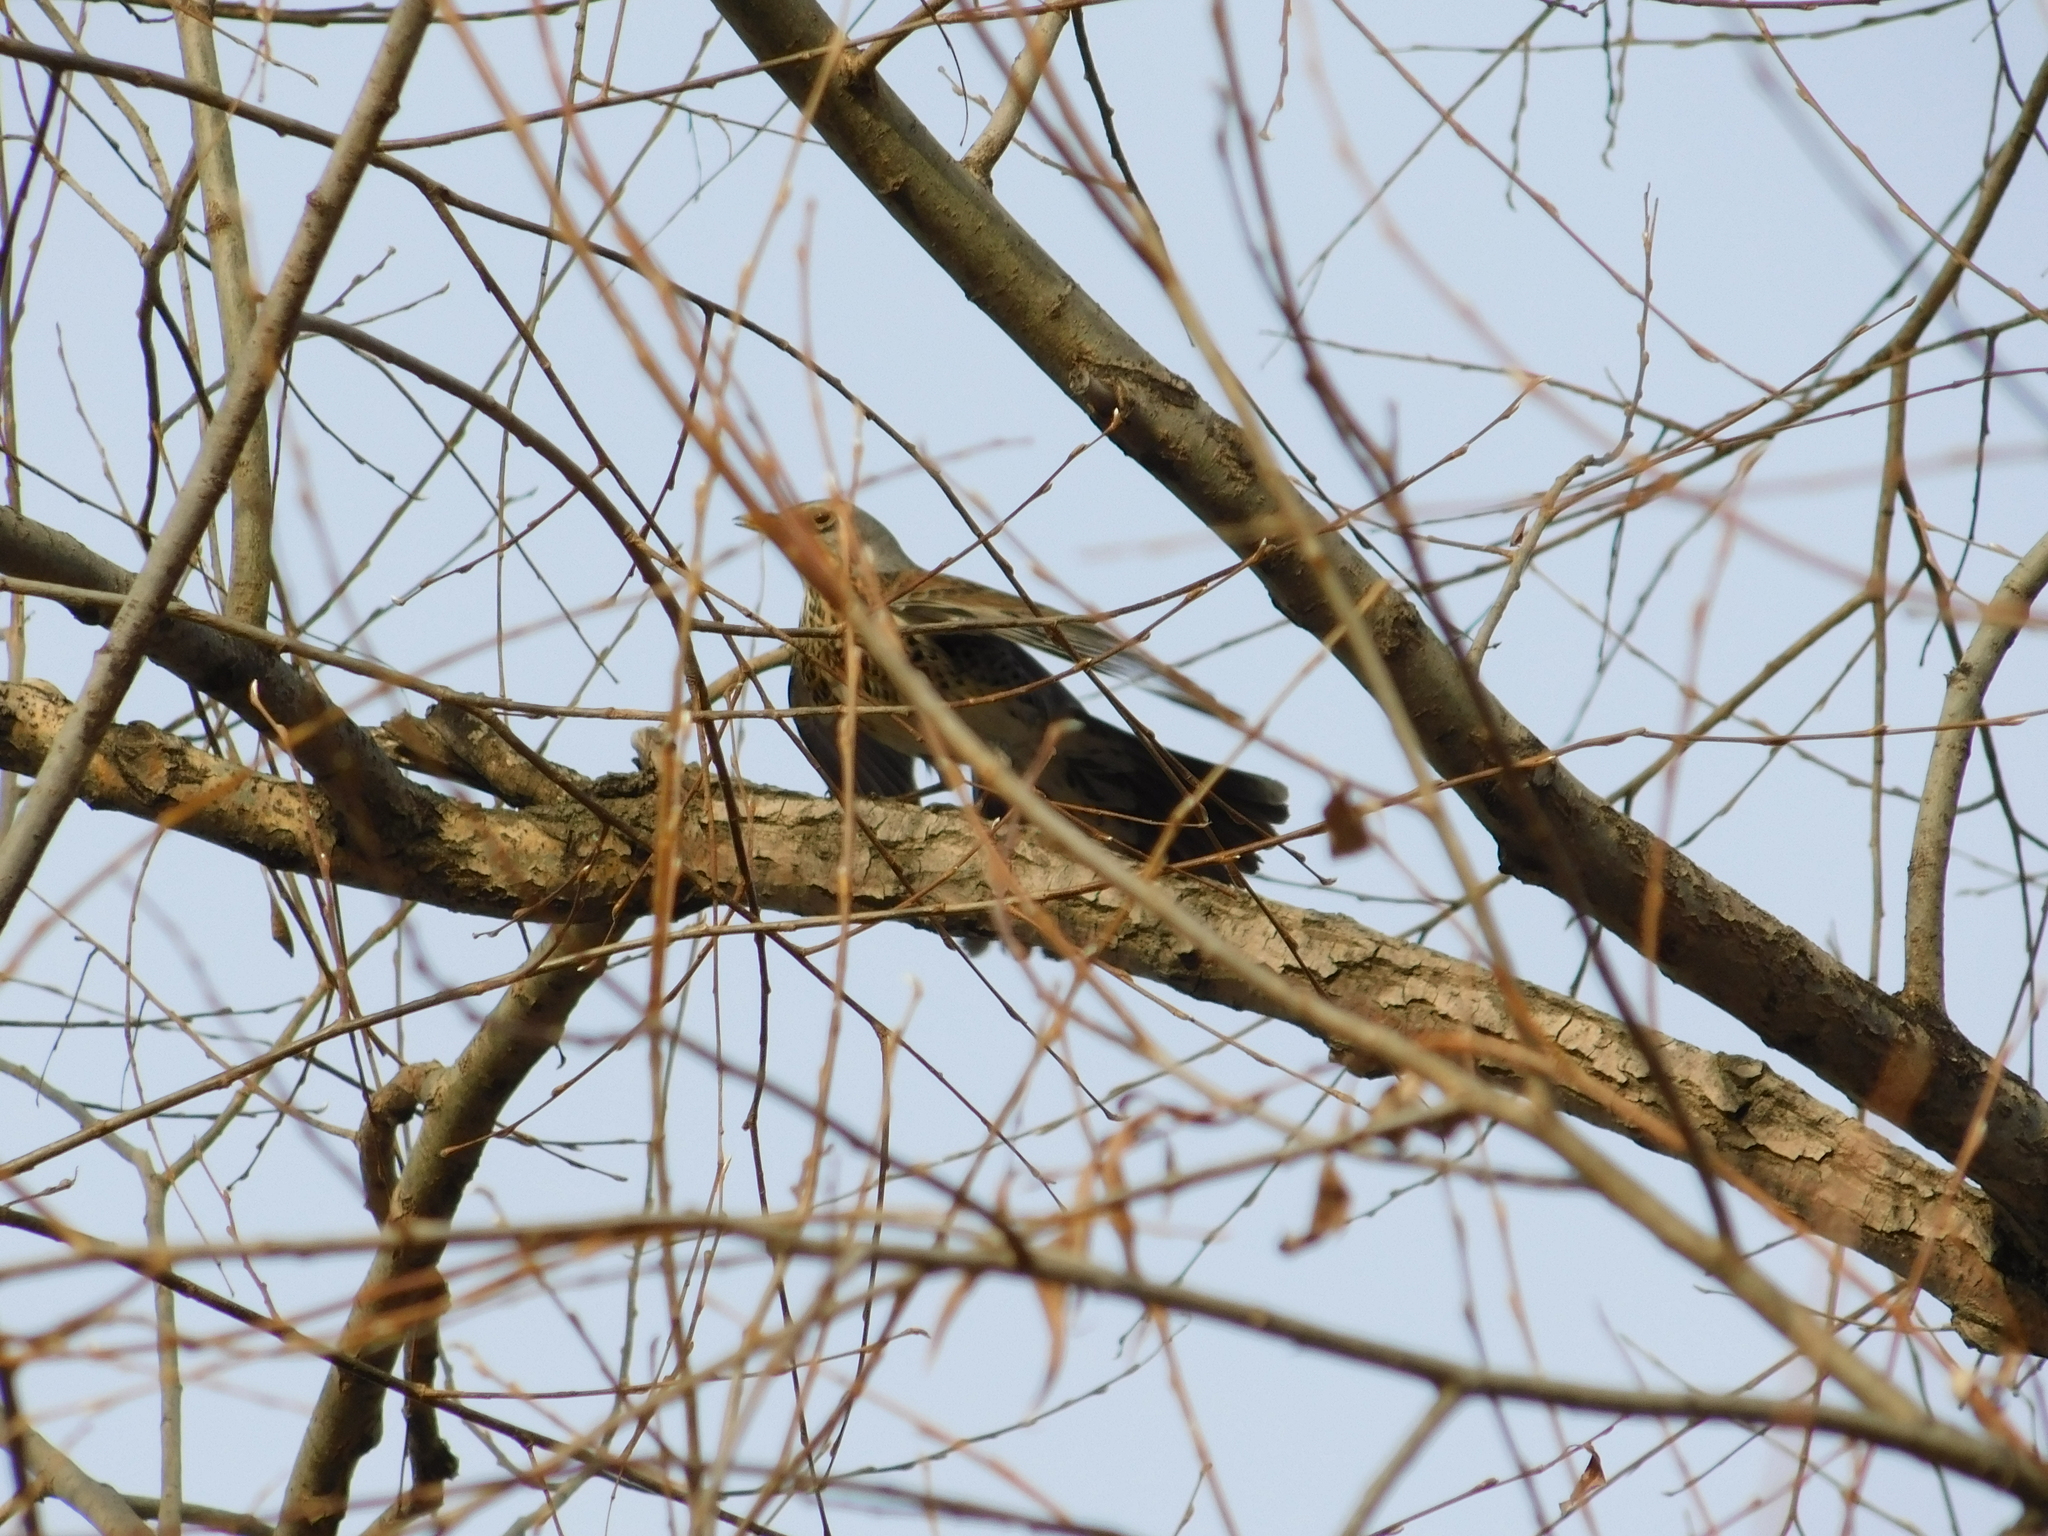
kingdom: Animalia
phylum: Chordata
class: Aves
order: Passeriformes
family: Turdidae
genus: Turdus
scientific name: Turdus pilaris
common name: Fieldfare
